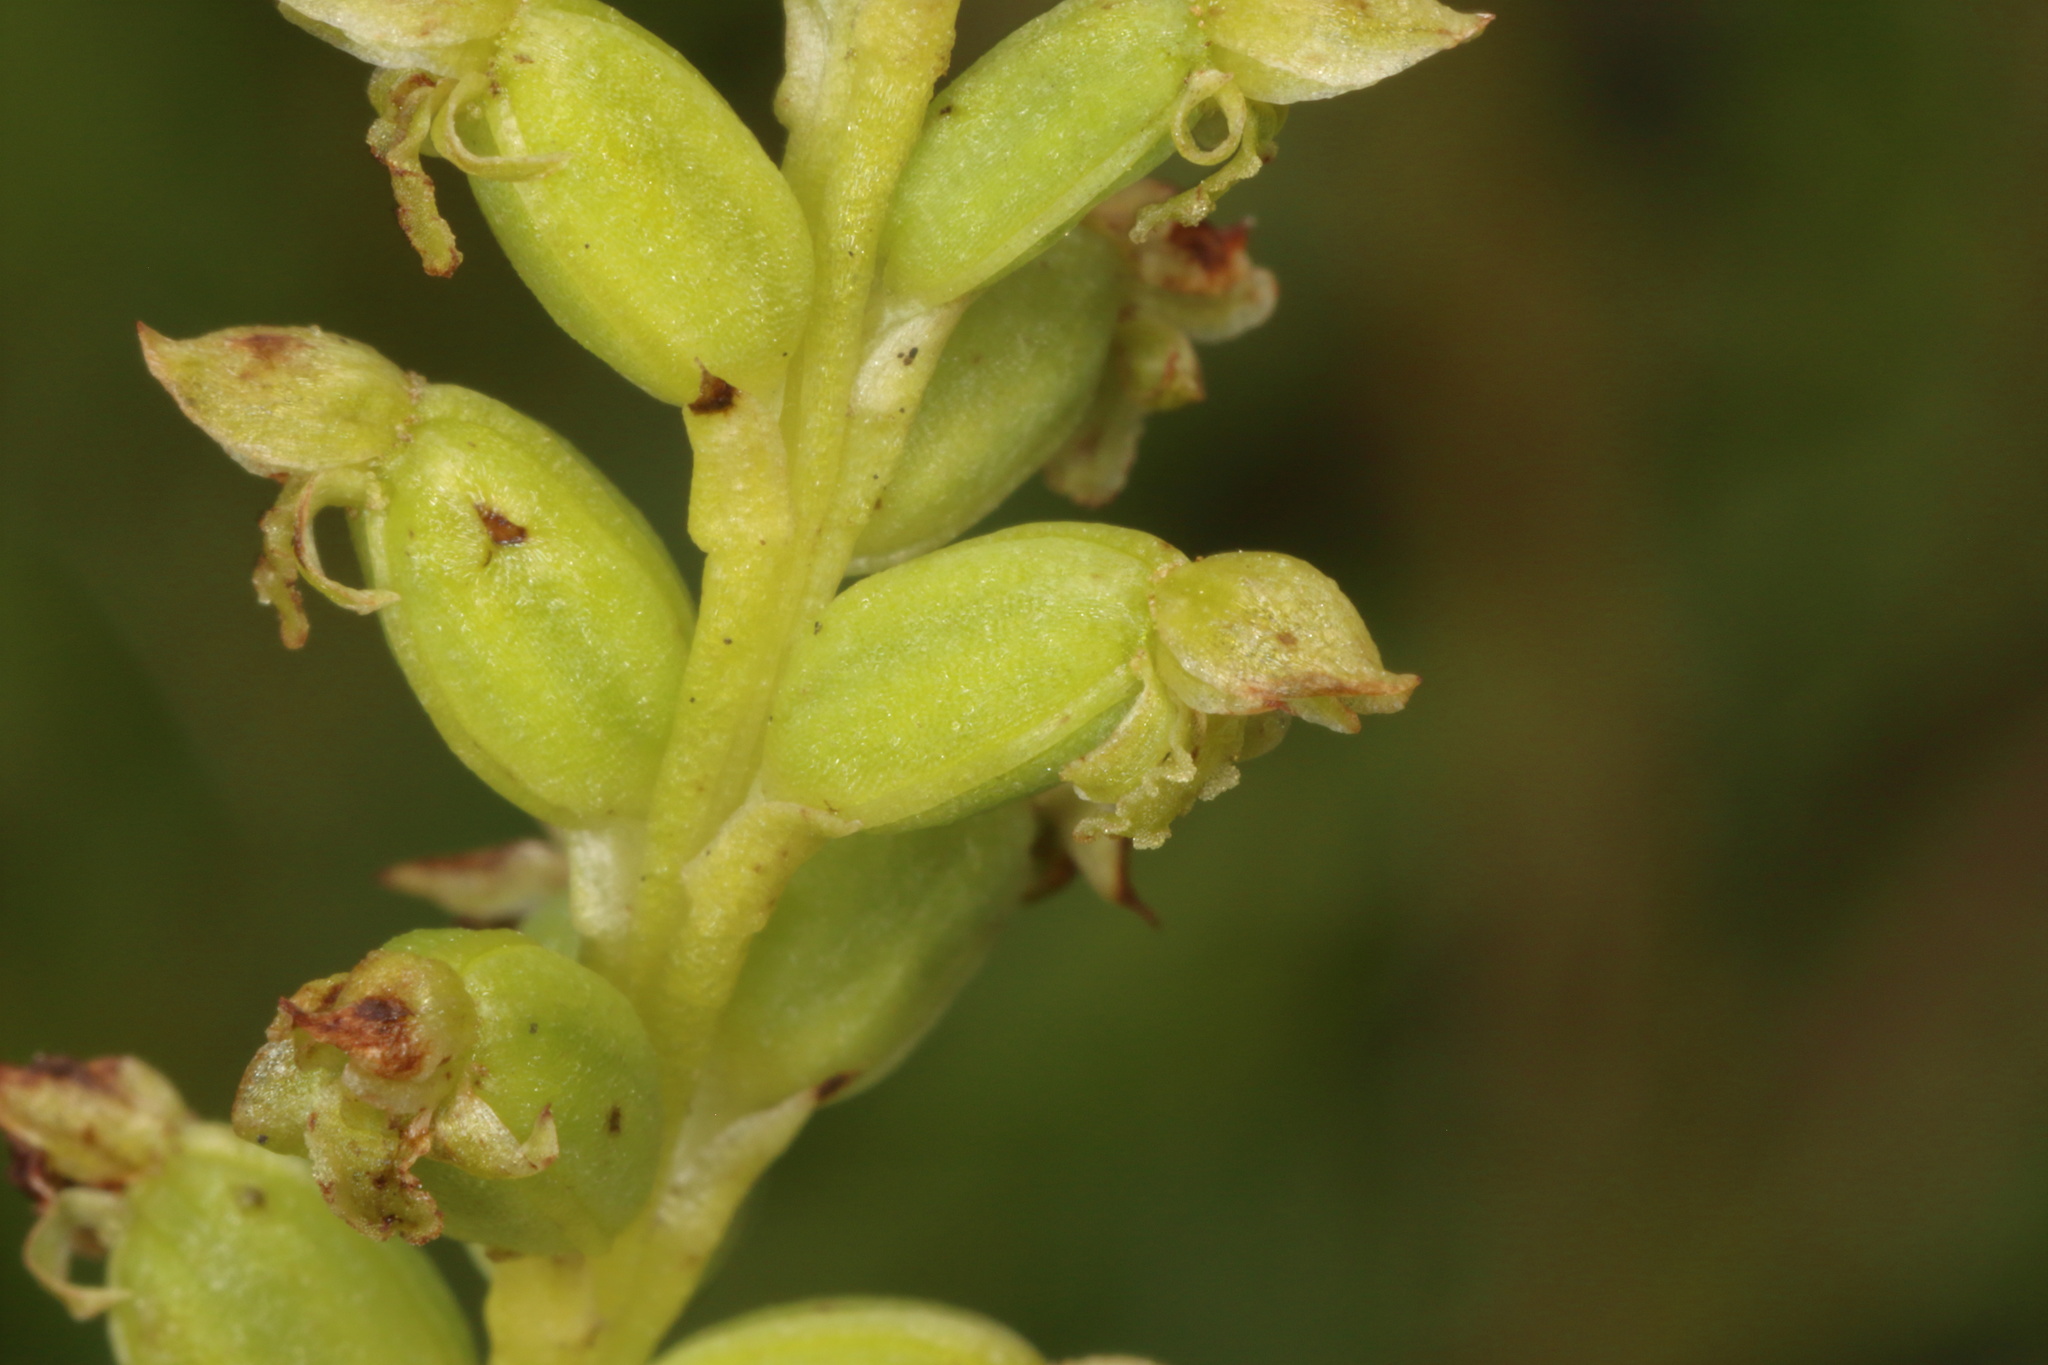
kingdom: Plantae
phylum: Tracheophyta
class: Liliopsida
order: Asparagales
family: Orchidaceae
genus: Microtis
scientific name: Microtis unifolia
